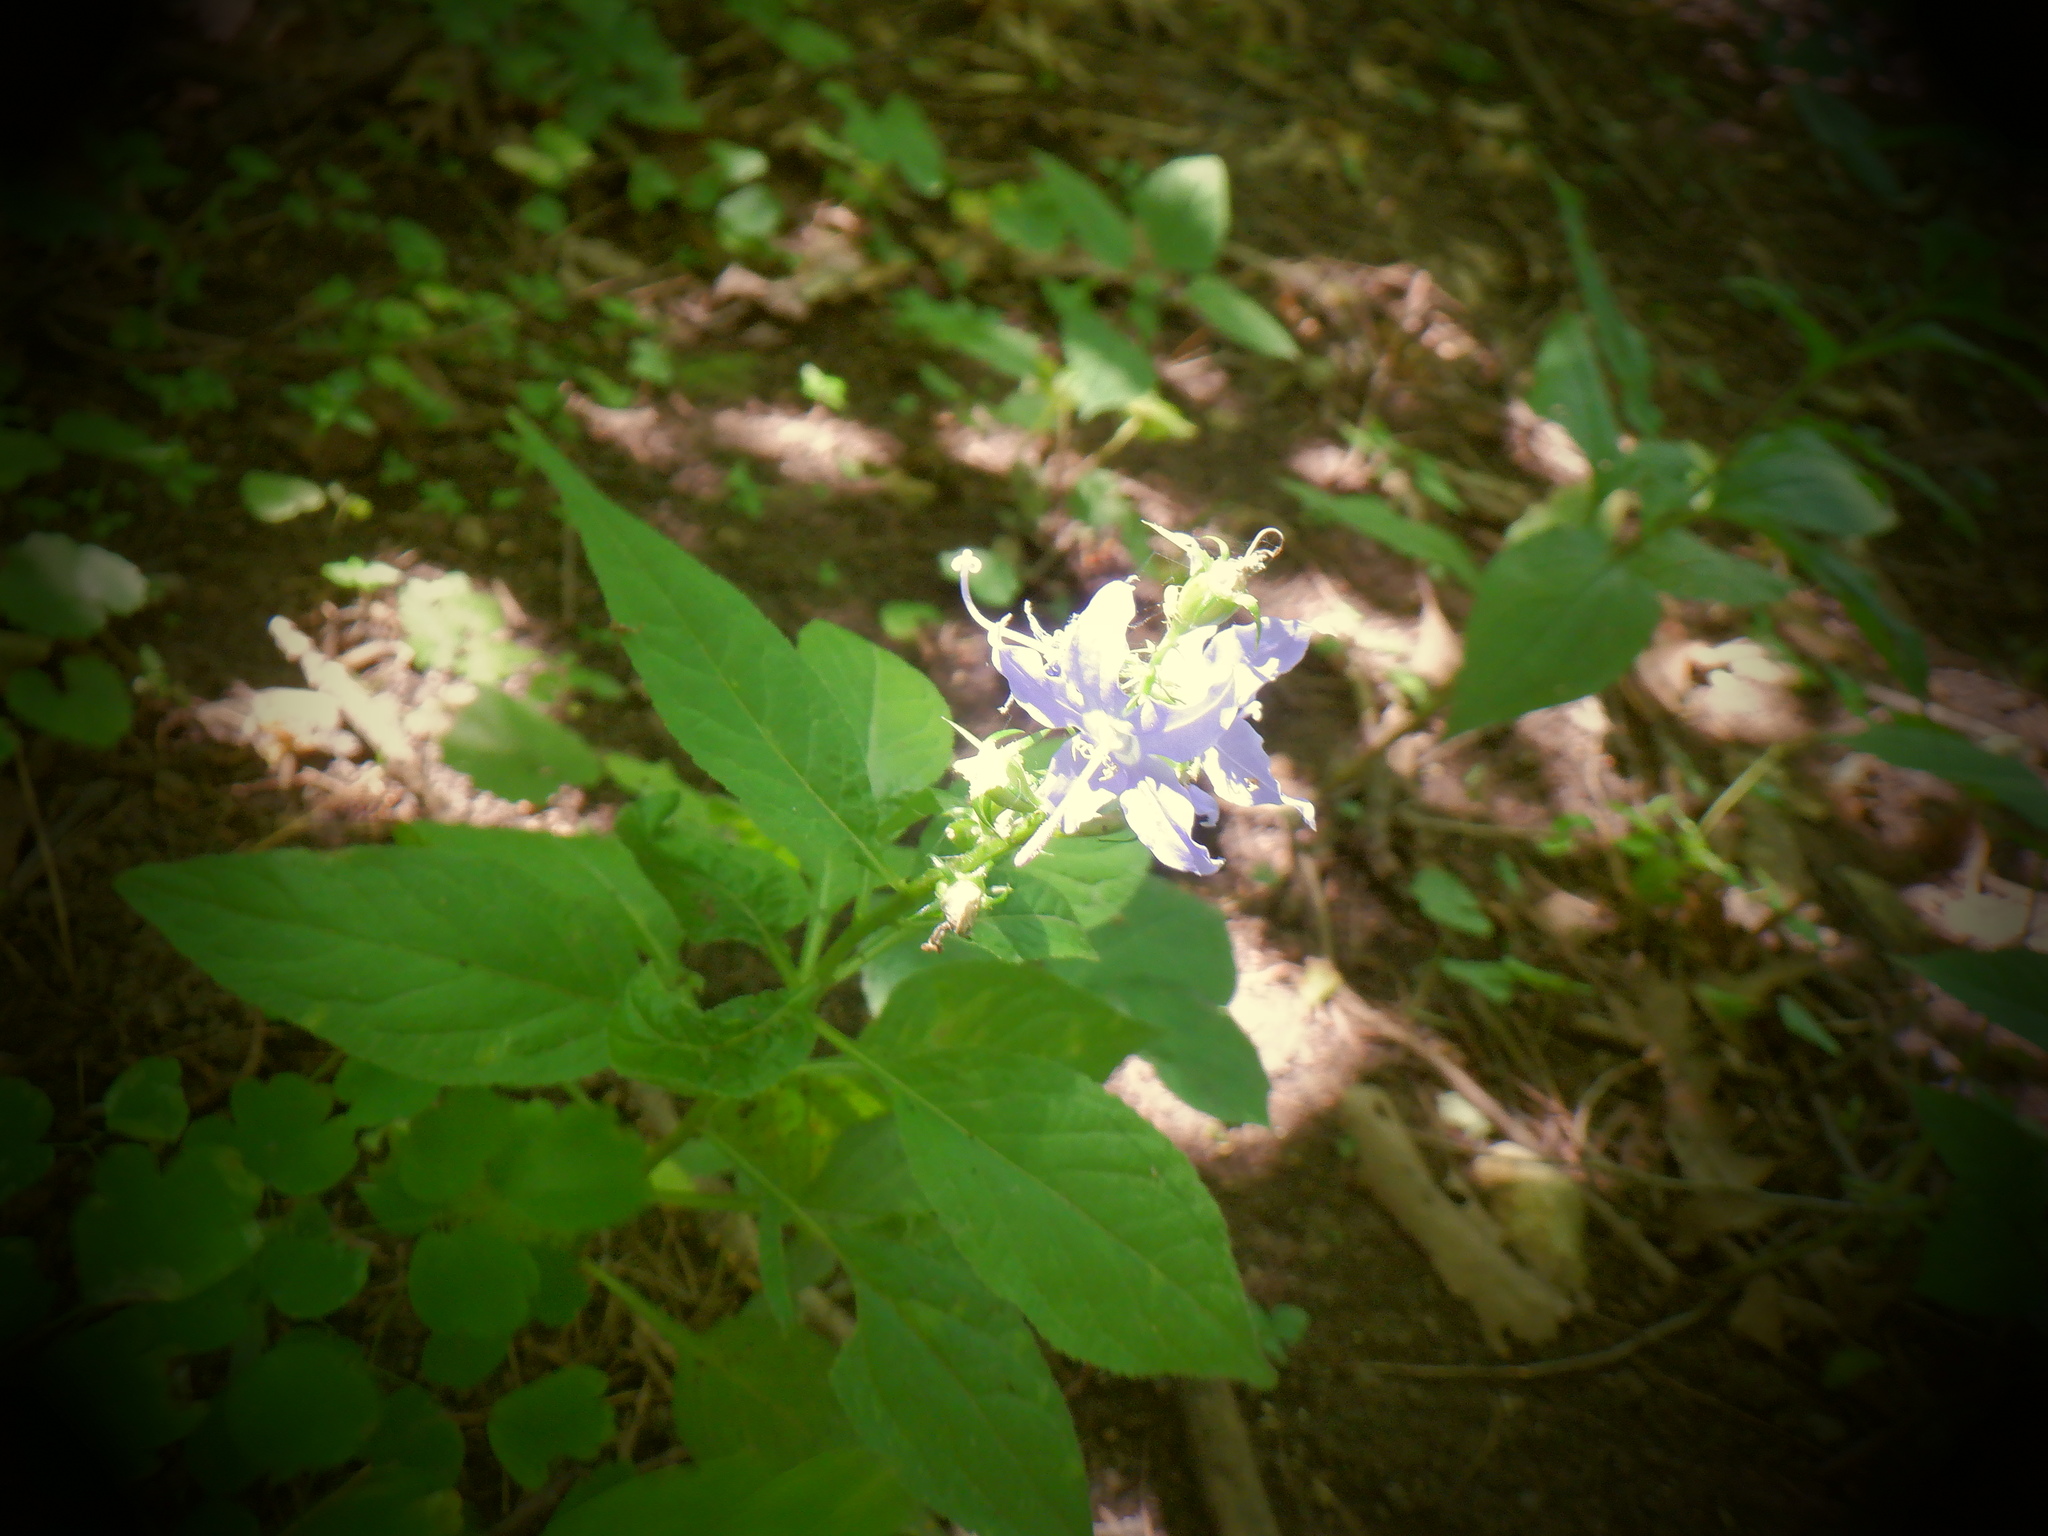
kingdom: Plantae
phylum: Tracheophyta
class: Magnoliopsida
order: Asterales
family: Campanulaceae
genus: Campanulastrum
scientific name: Campanulastrum americanum
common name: American bellflower
